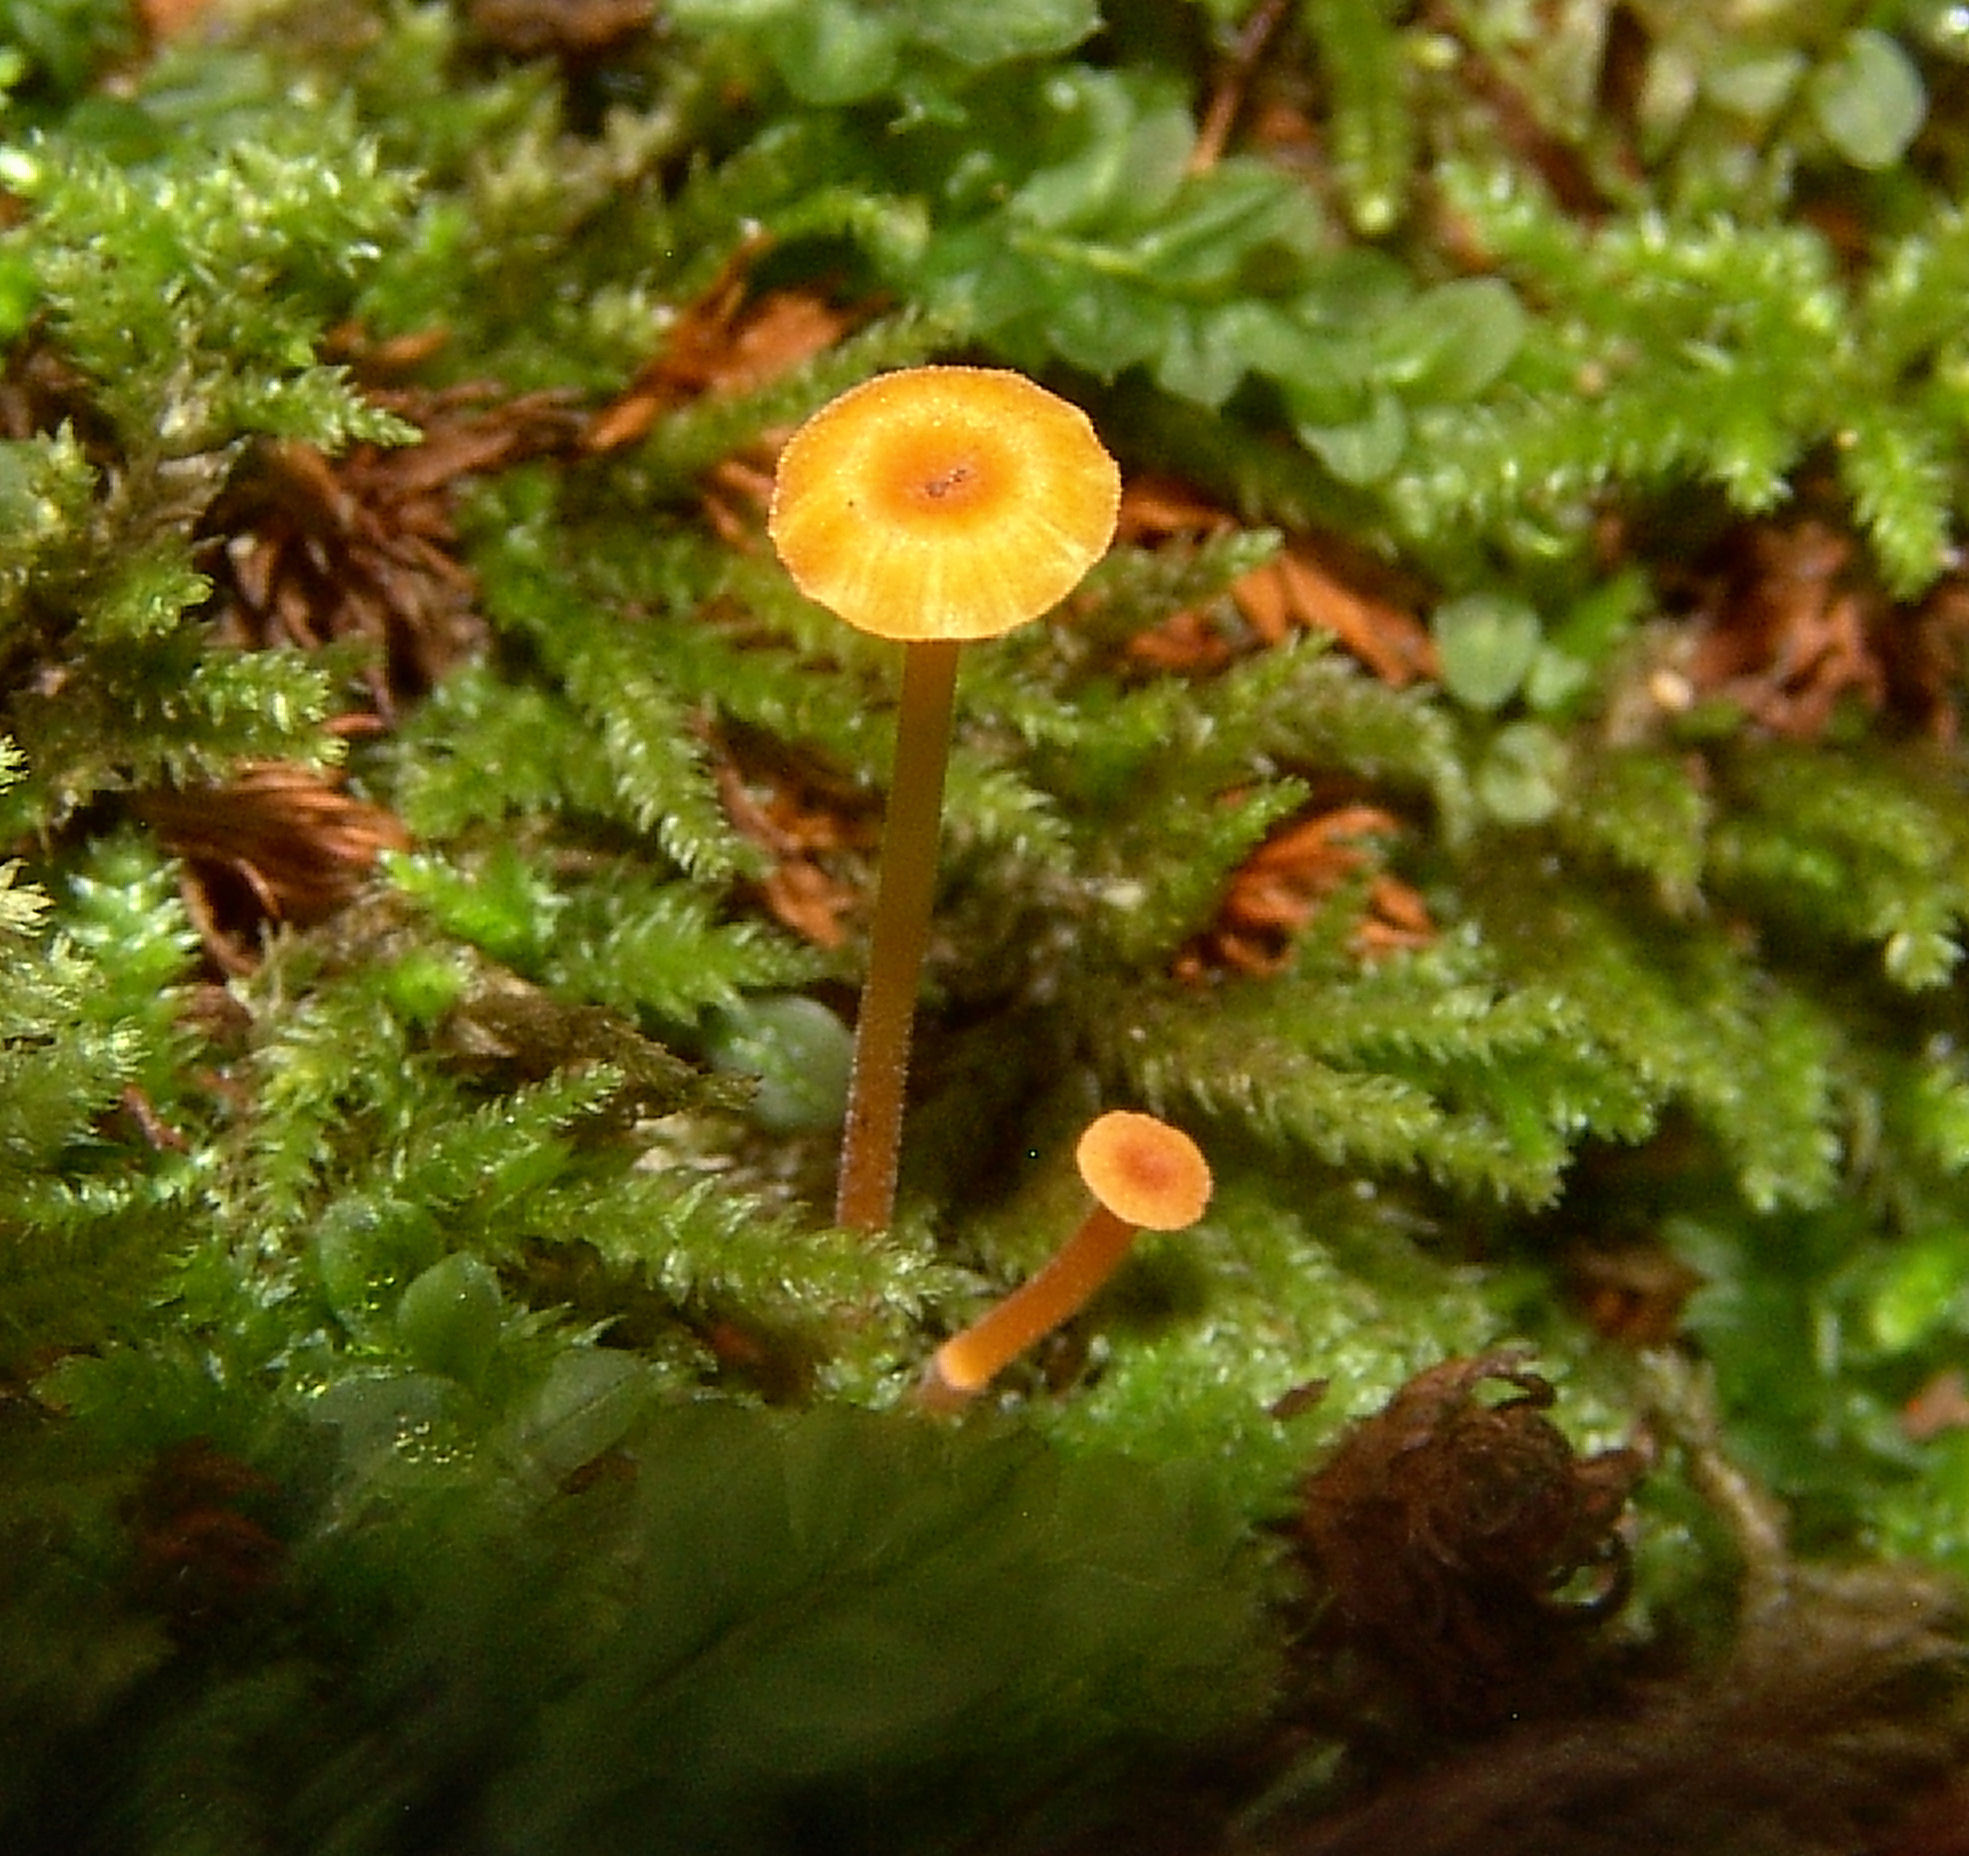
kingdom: Fungi
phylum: Basidiomycota
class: Agaricomycetes
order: Hymenochaetales
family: Rickenellaceae
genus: Rickenella
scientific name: Rickenella fibula
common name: Orange mosscap
